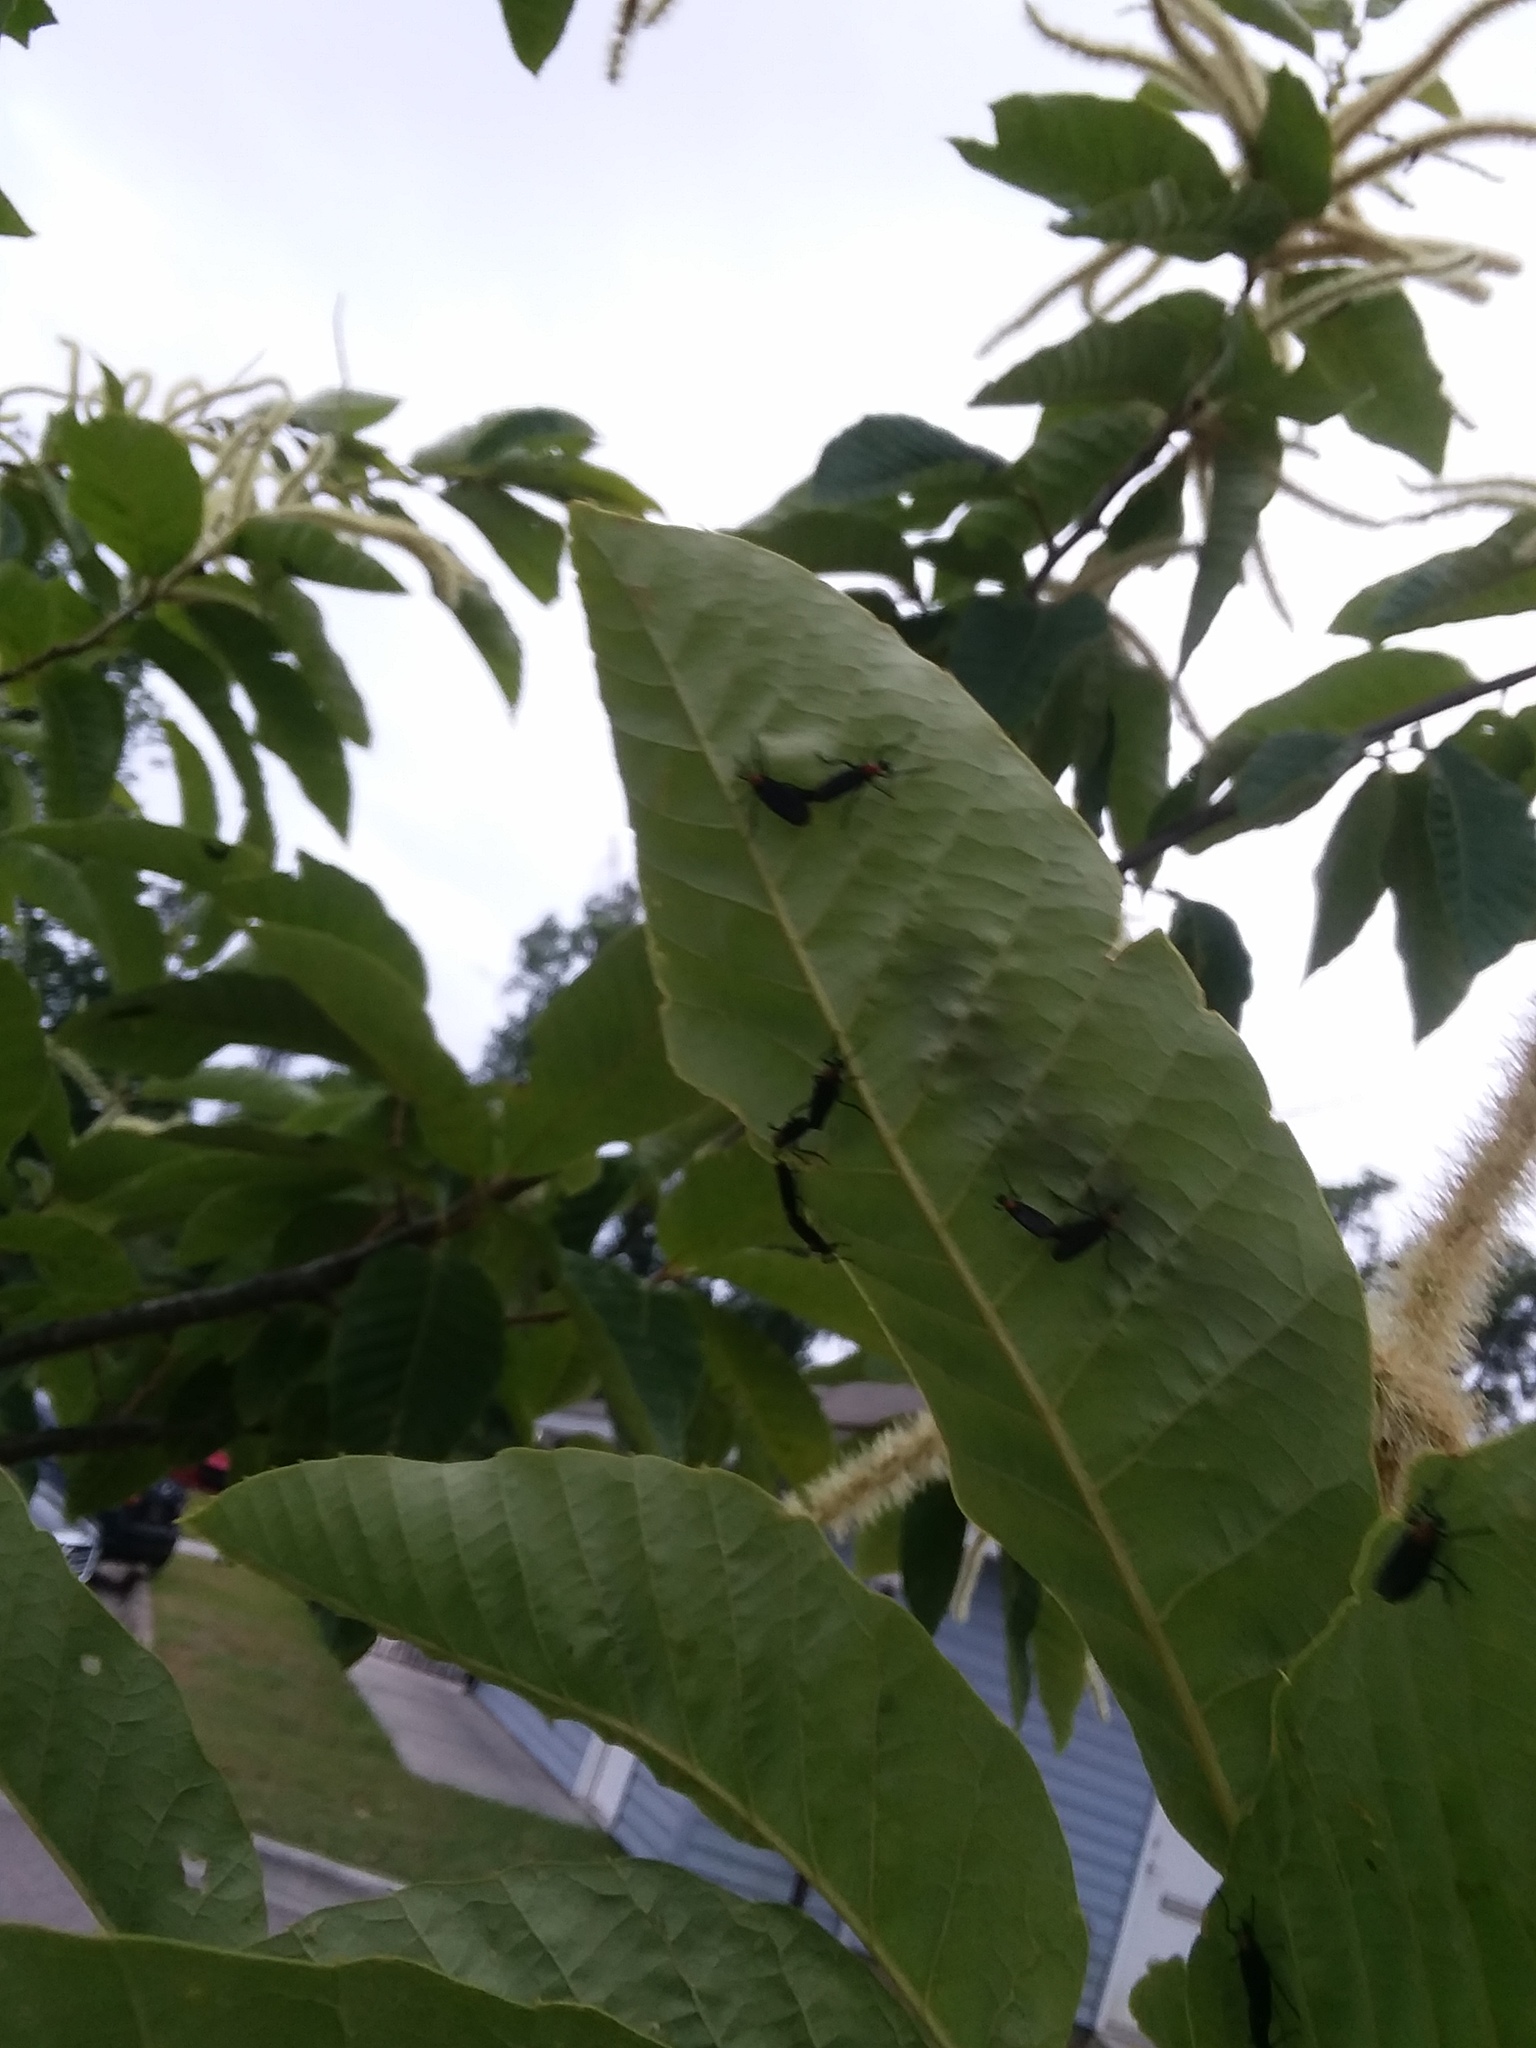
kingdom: Animalia
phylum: Arthropoda
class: Insecta
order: Diptera
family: Bibionidae
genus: Plecia
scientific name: Plecia nearctica
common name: March fly
